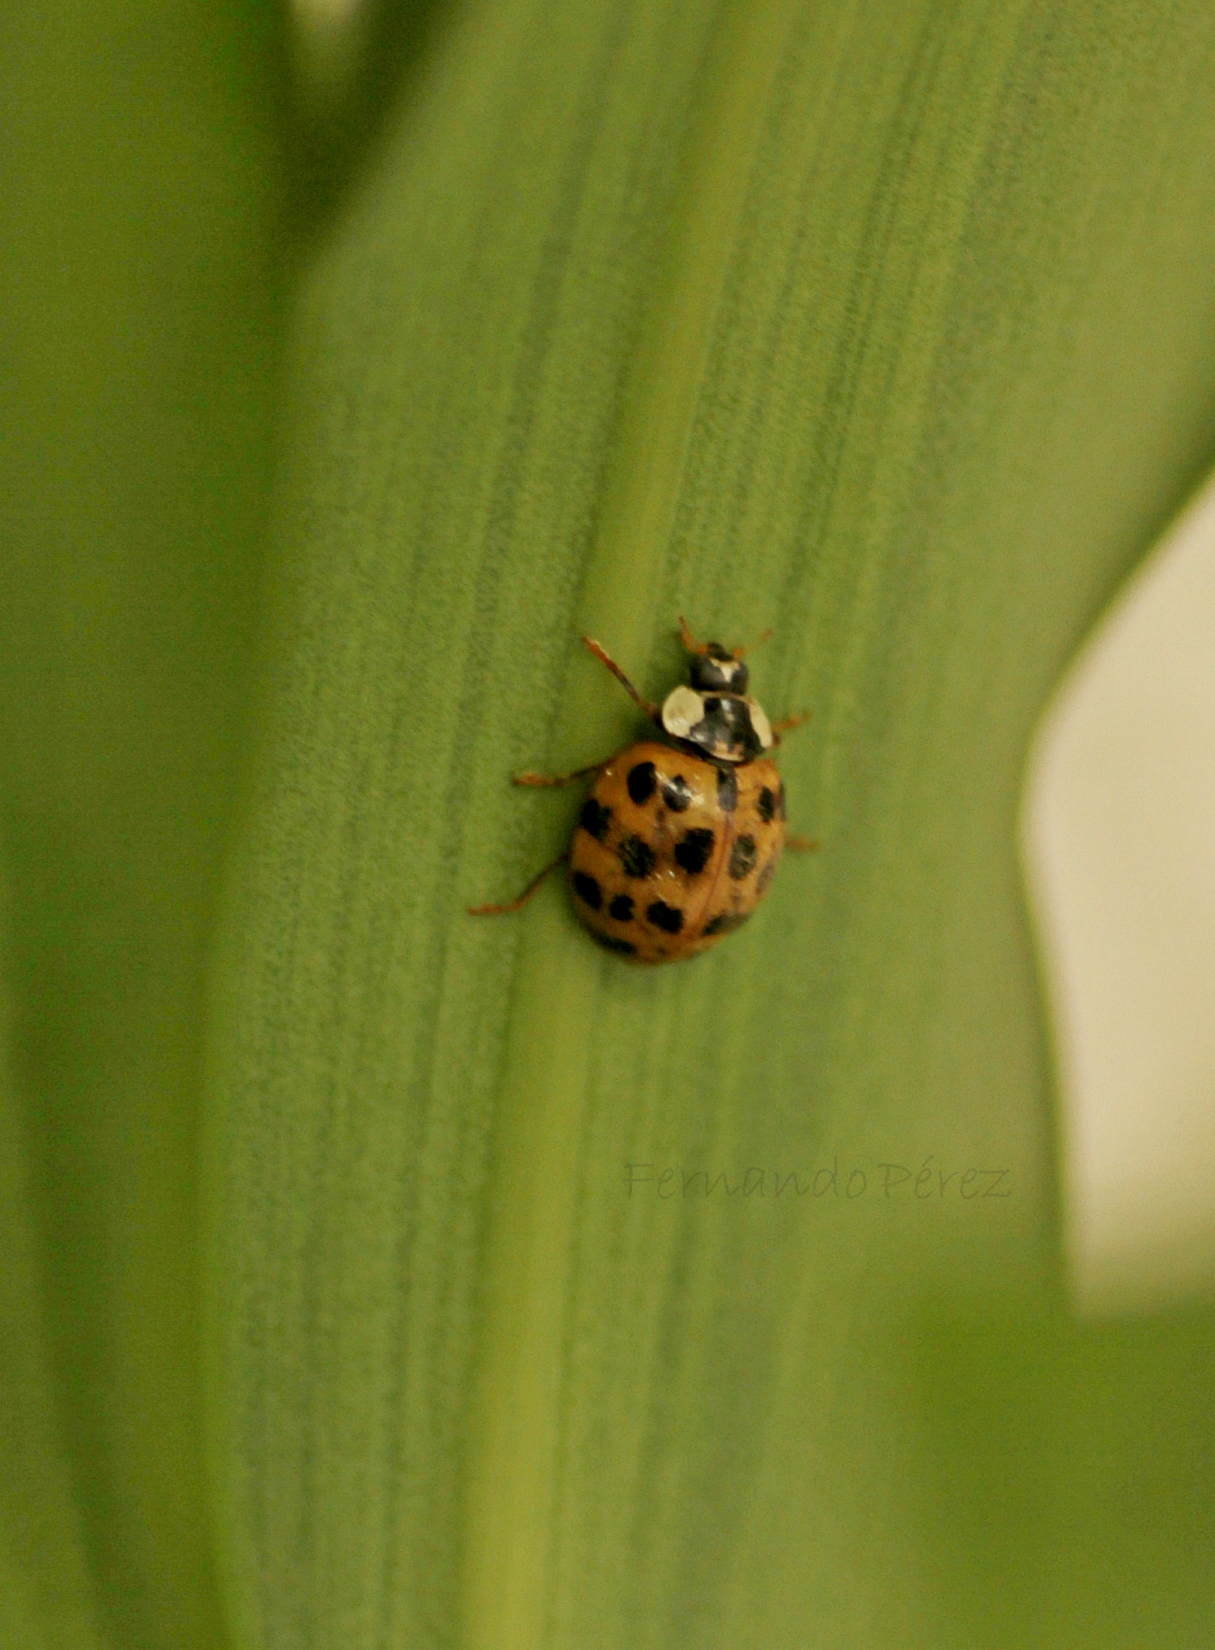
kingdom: Animalia
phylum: Arthropoda
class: Insecta
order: Coleoptera
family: Coccinellidae
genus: Harmonia
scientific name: Harmonia axyridis
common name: Harlequin ladybird
